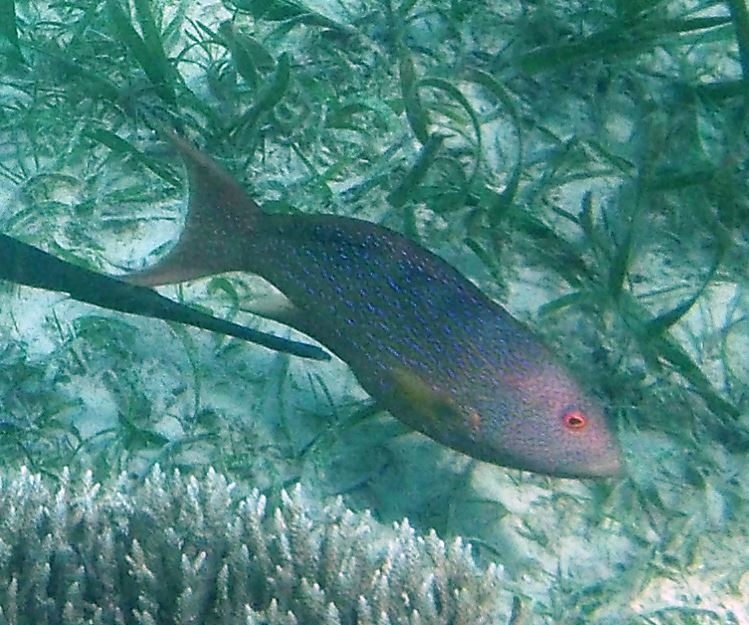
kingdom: Animalia
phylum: Chordata
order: Perciformes
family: Serranidae
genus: Variola
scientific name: Variola albimarginata
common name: Lunar-tailed grouper
